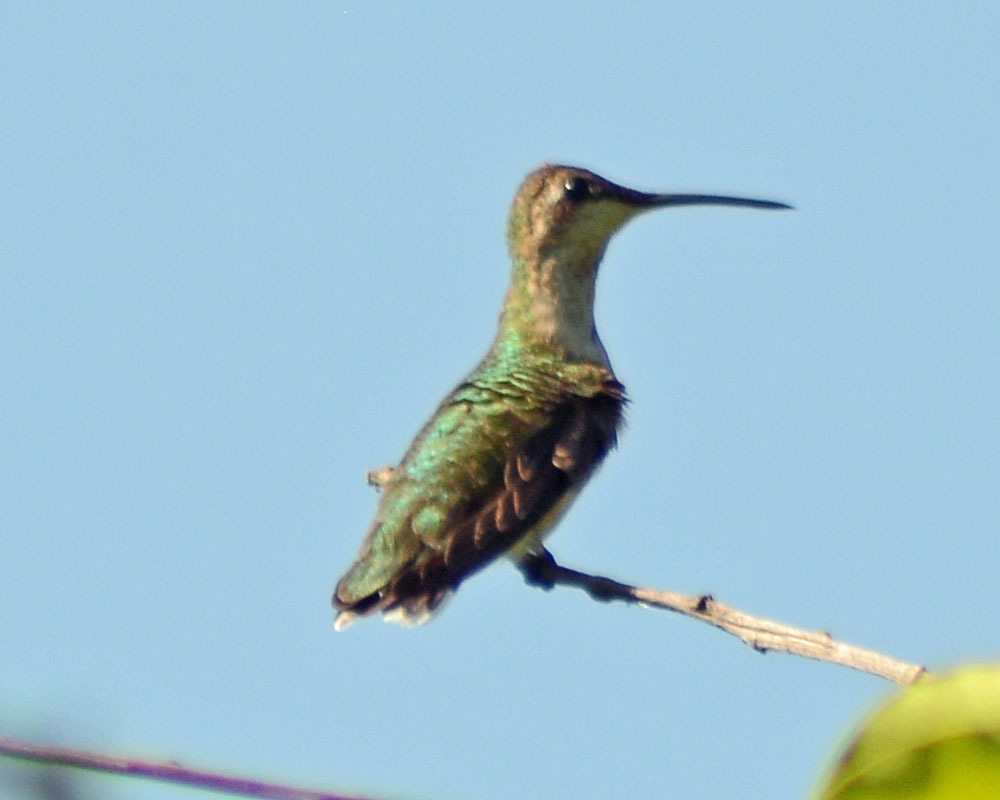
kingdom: Animalia
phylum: Chordata
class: Aves
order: Apodiformes
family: Trochilidae
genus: Archilochus
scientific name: Archilochus colubris
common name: Ruby-throated hummingbird
